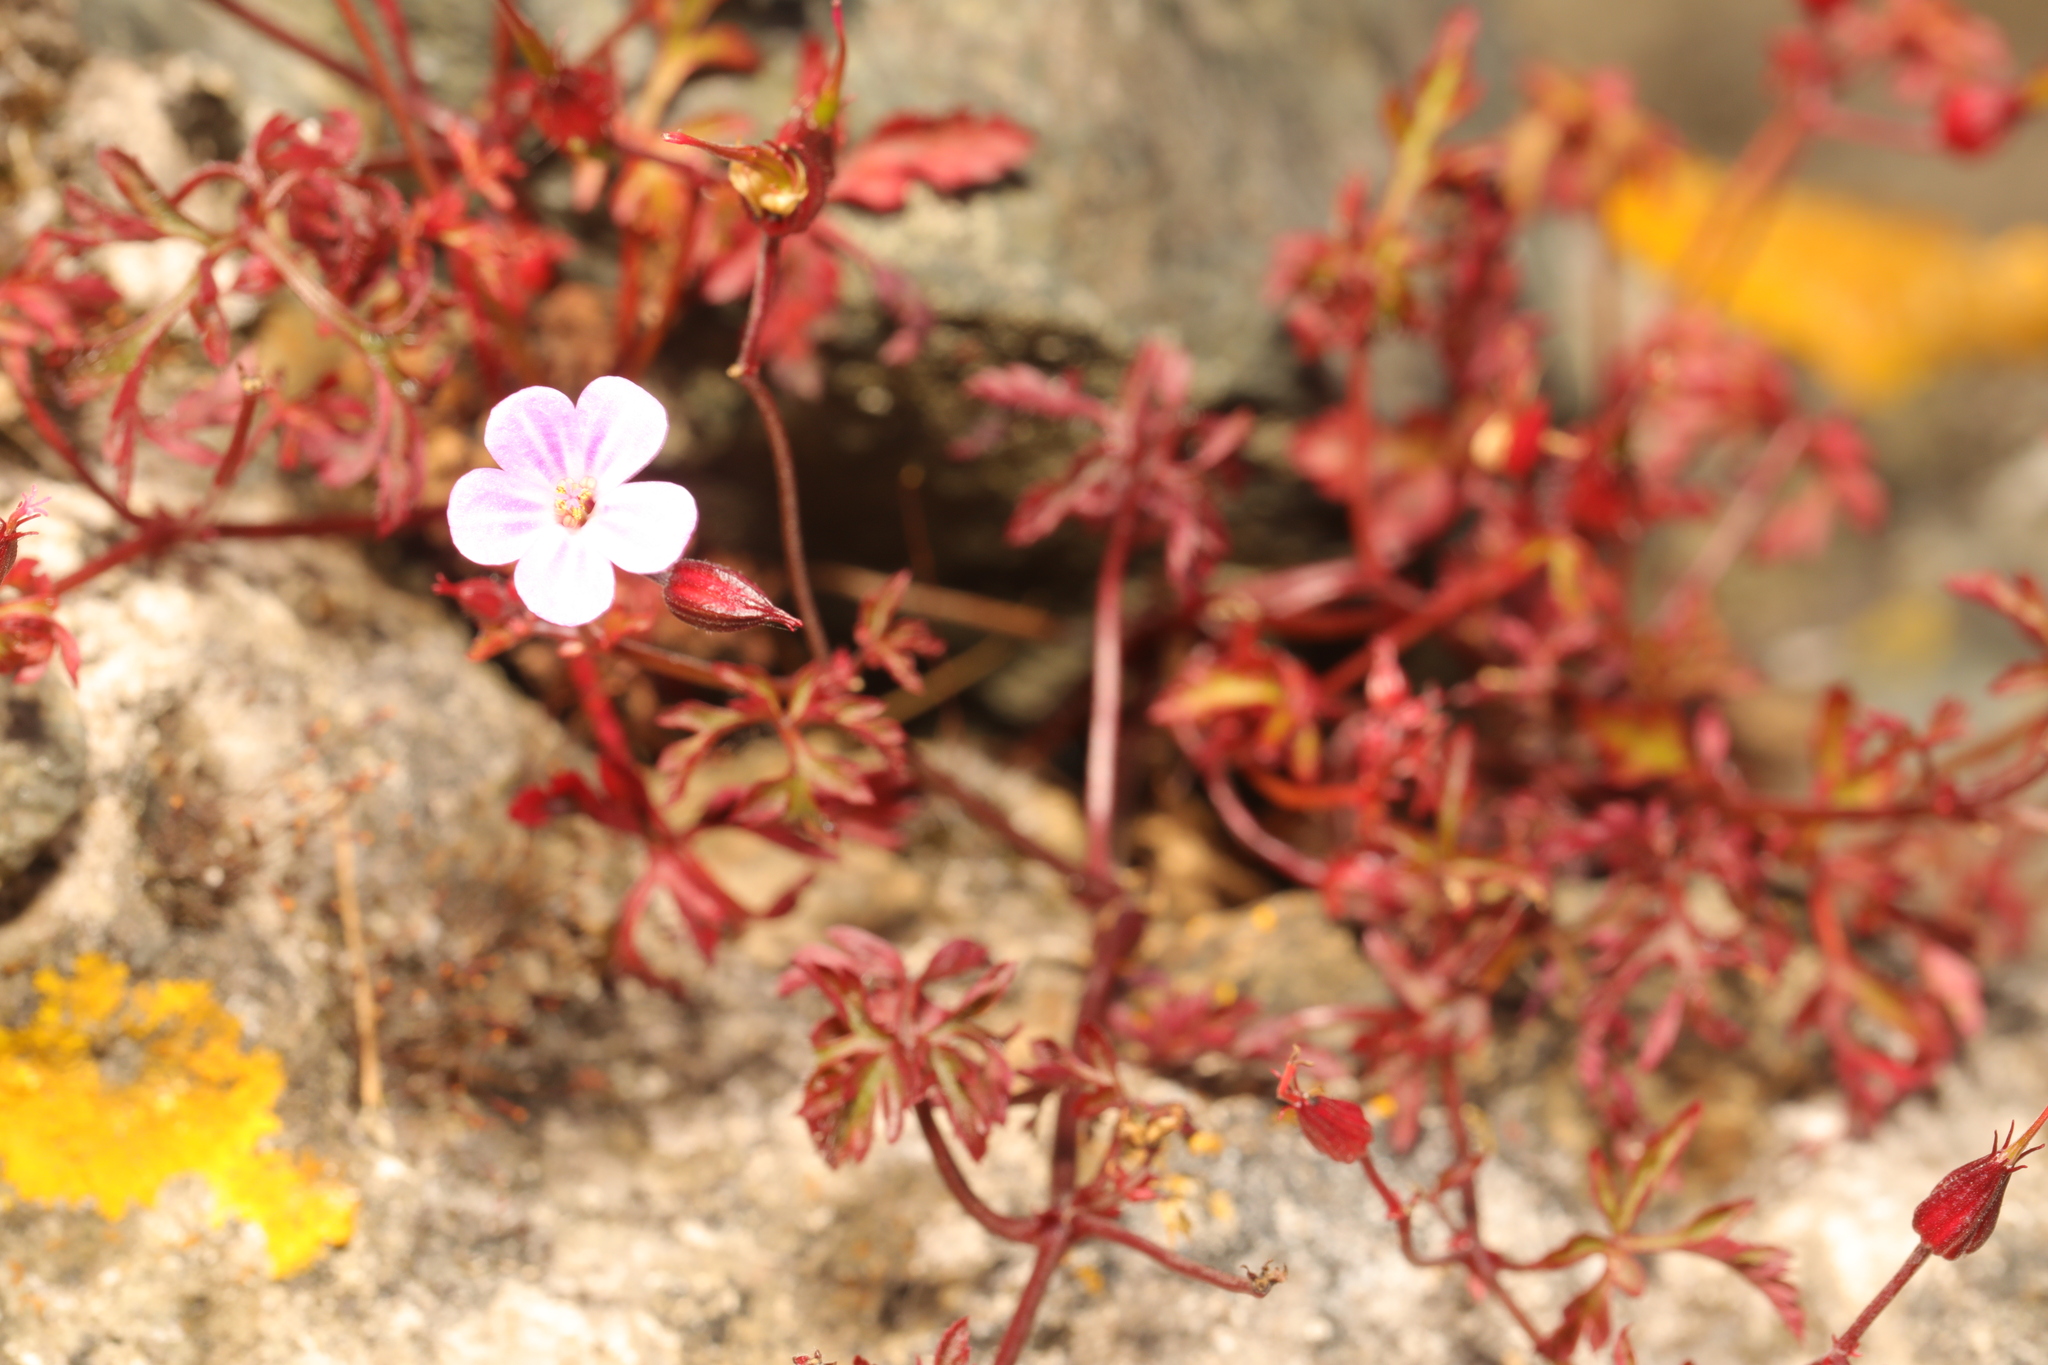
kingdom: Plantae
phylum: Tracheophyta
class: Magnoliopsida
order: Geraniales
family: Geraniaceae
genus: Geranium
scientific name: Geranium robertianum
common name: Herb-robert
